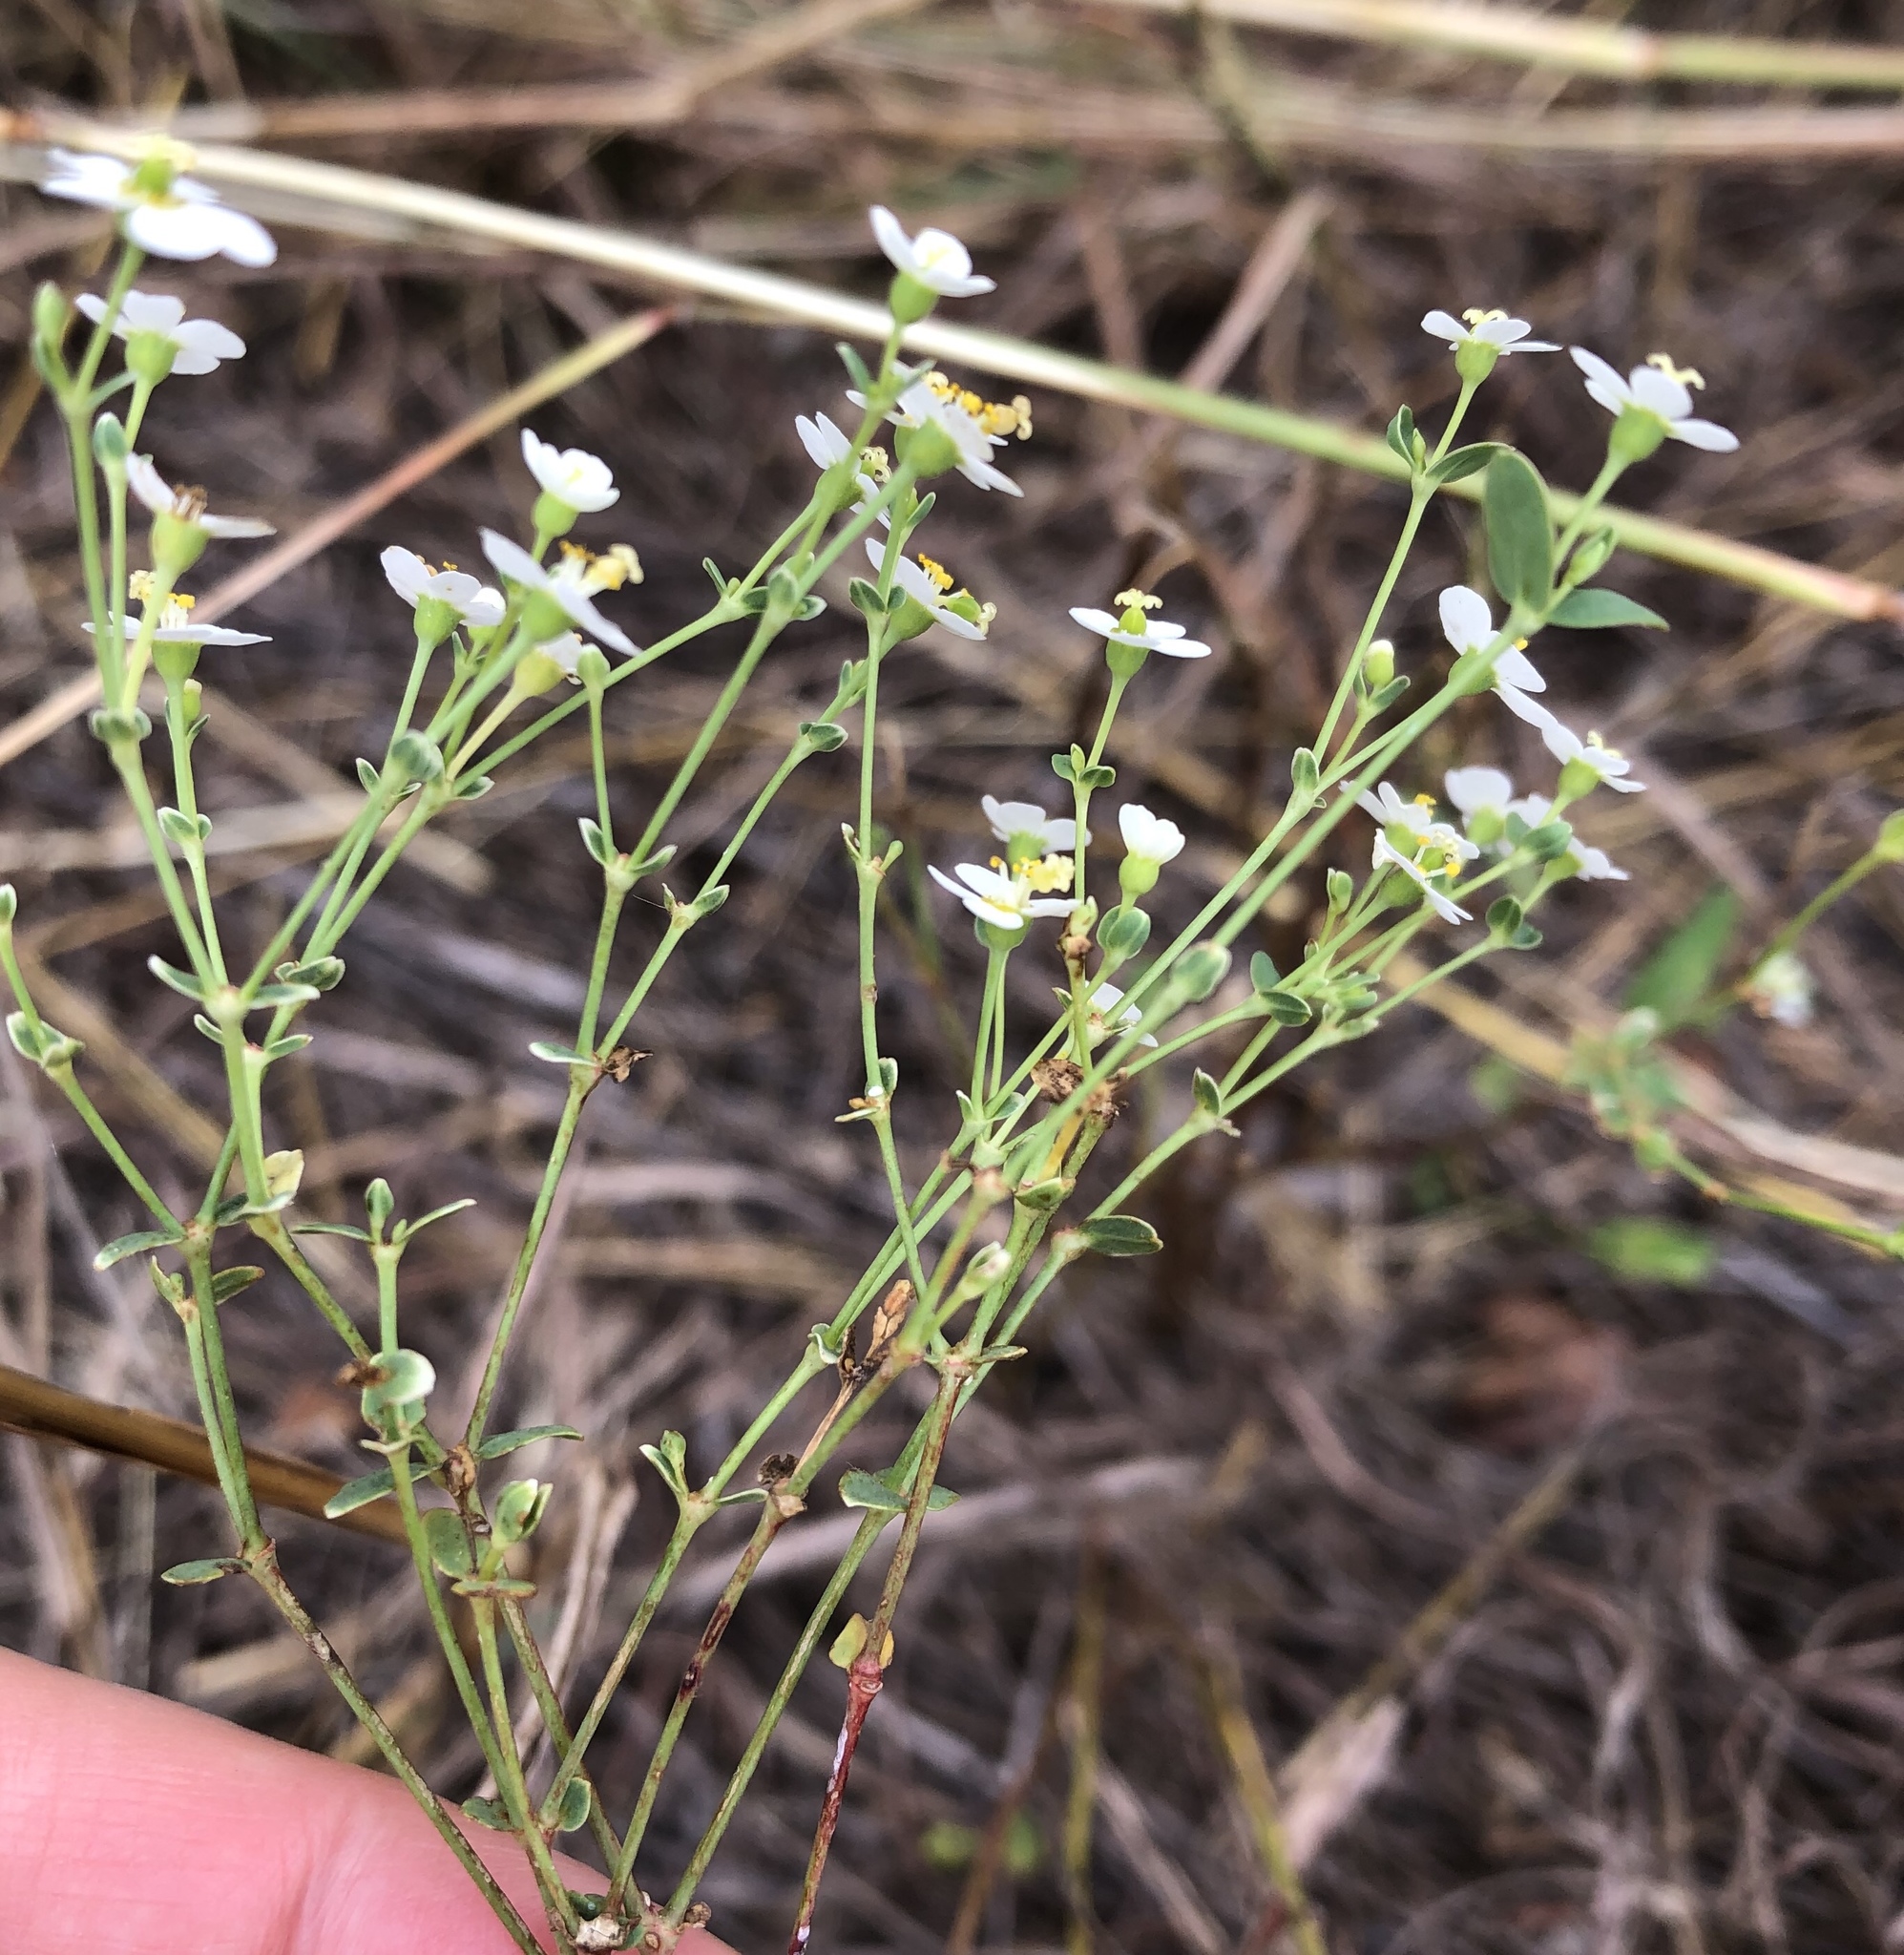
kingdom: Plantae
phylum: Tracheophyta
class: Magnoliopsida
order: Malpighiales
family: Euphorbiaceae
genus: Euphorbia
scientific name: Euphorbia corollata
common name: Flowering spurge
